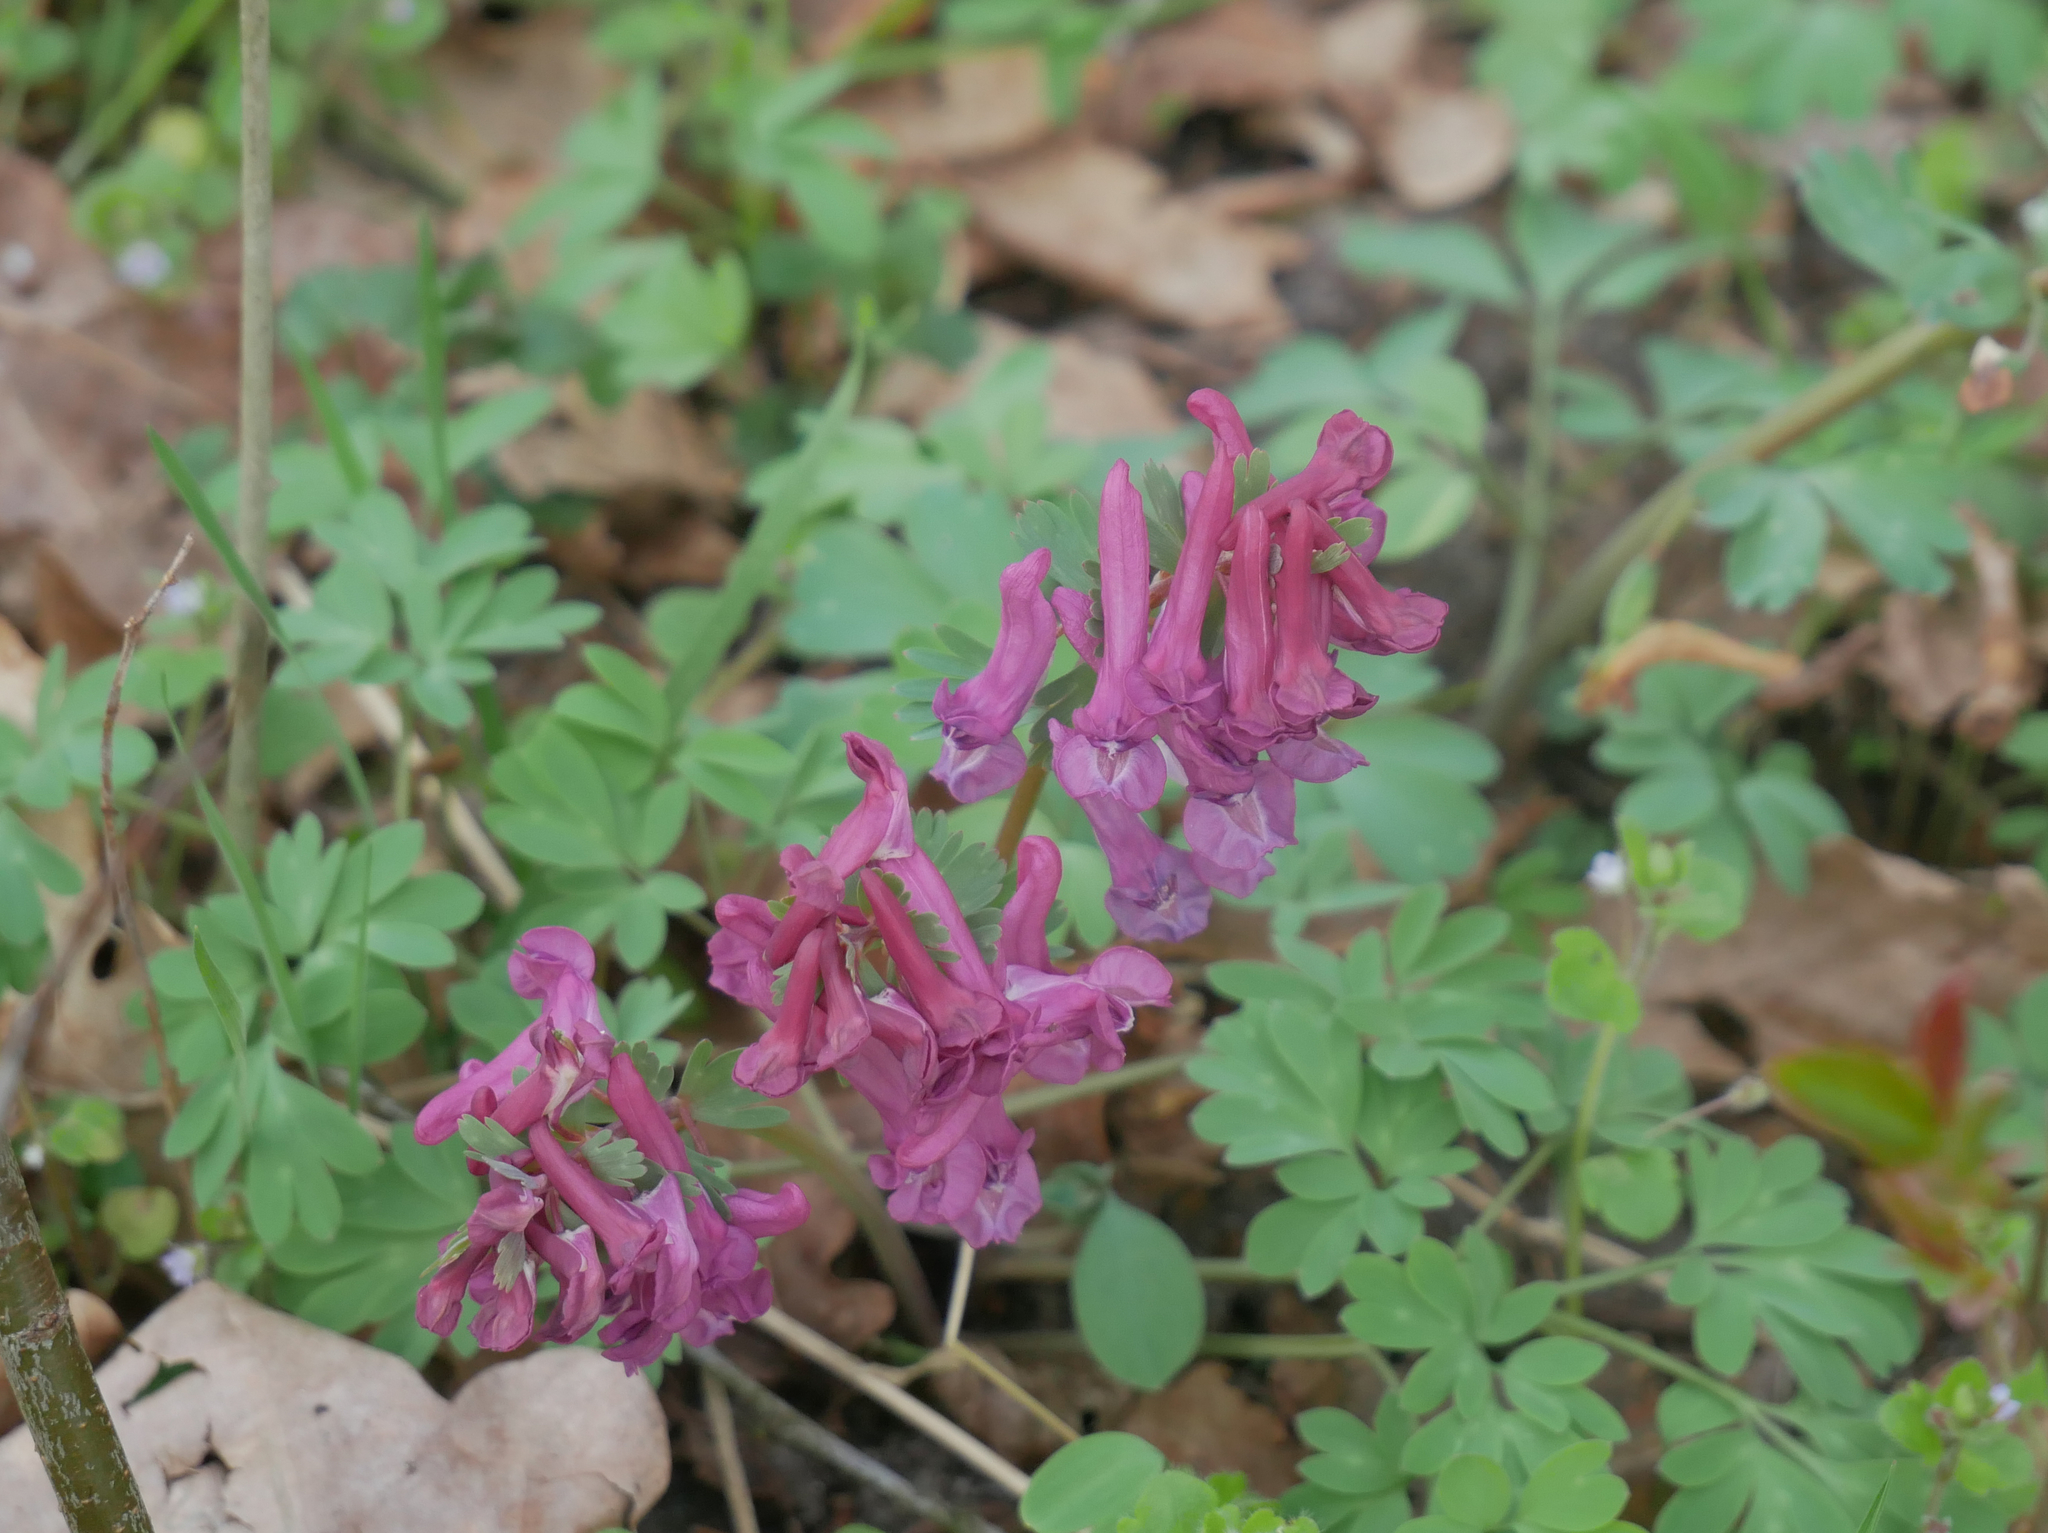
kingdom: Plantae
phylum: Tracheophyta
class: Magnoliopsida
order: Ranunculales
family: Papaveraceae
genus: Corydalis
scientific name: Corydalis solida
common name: Bird-in-a-bush
